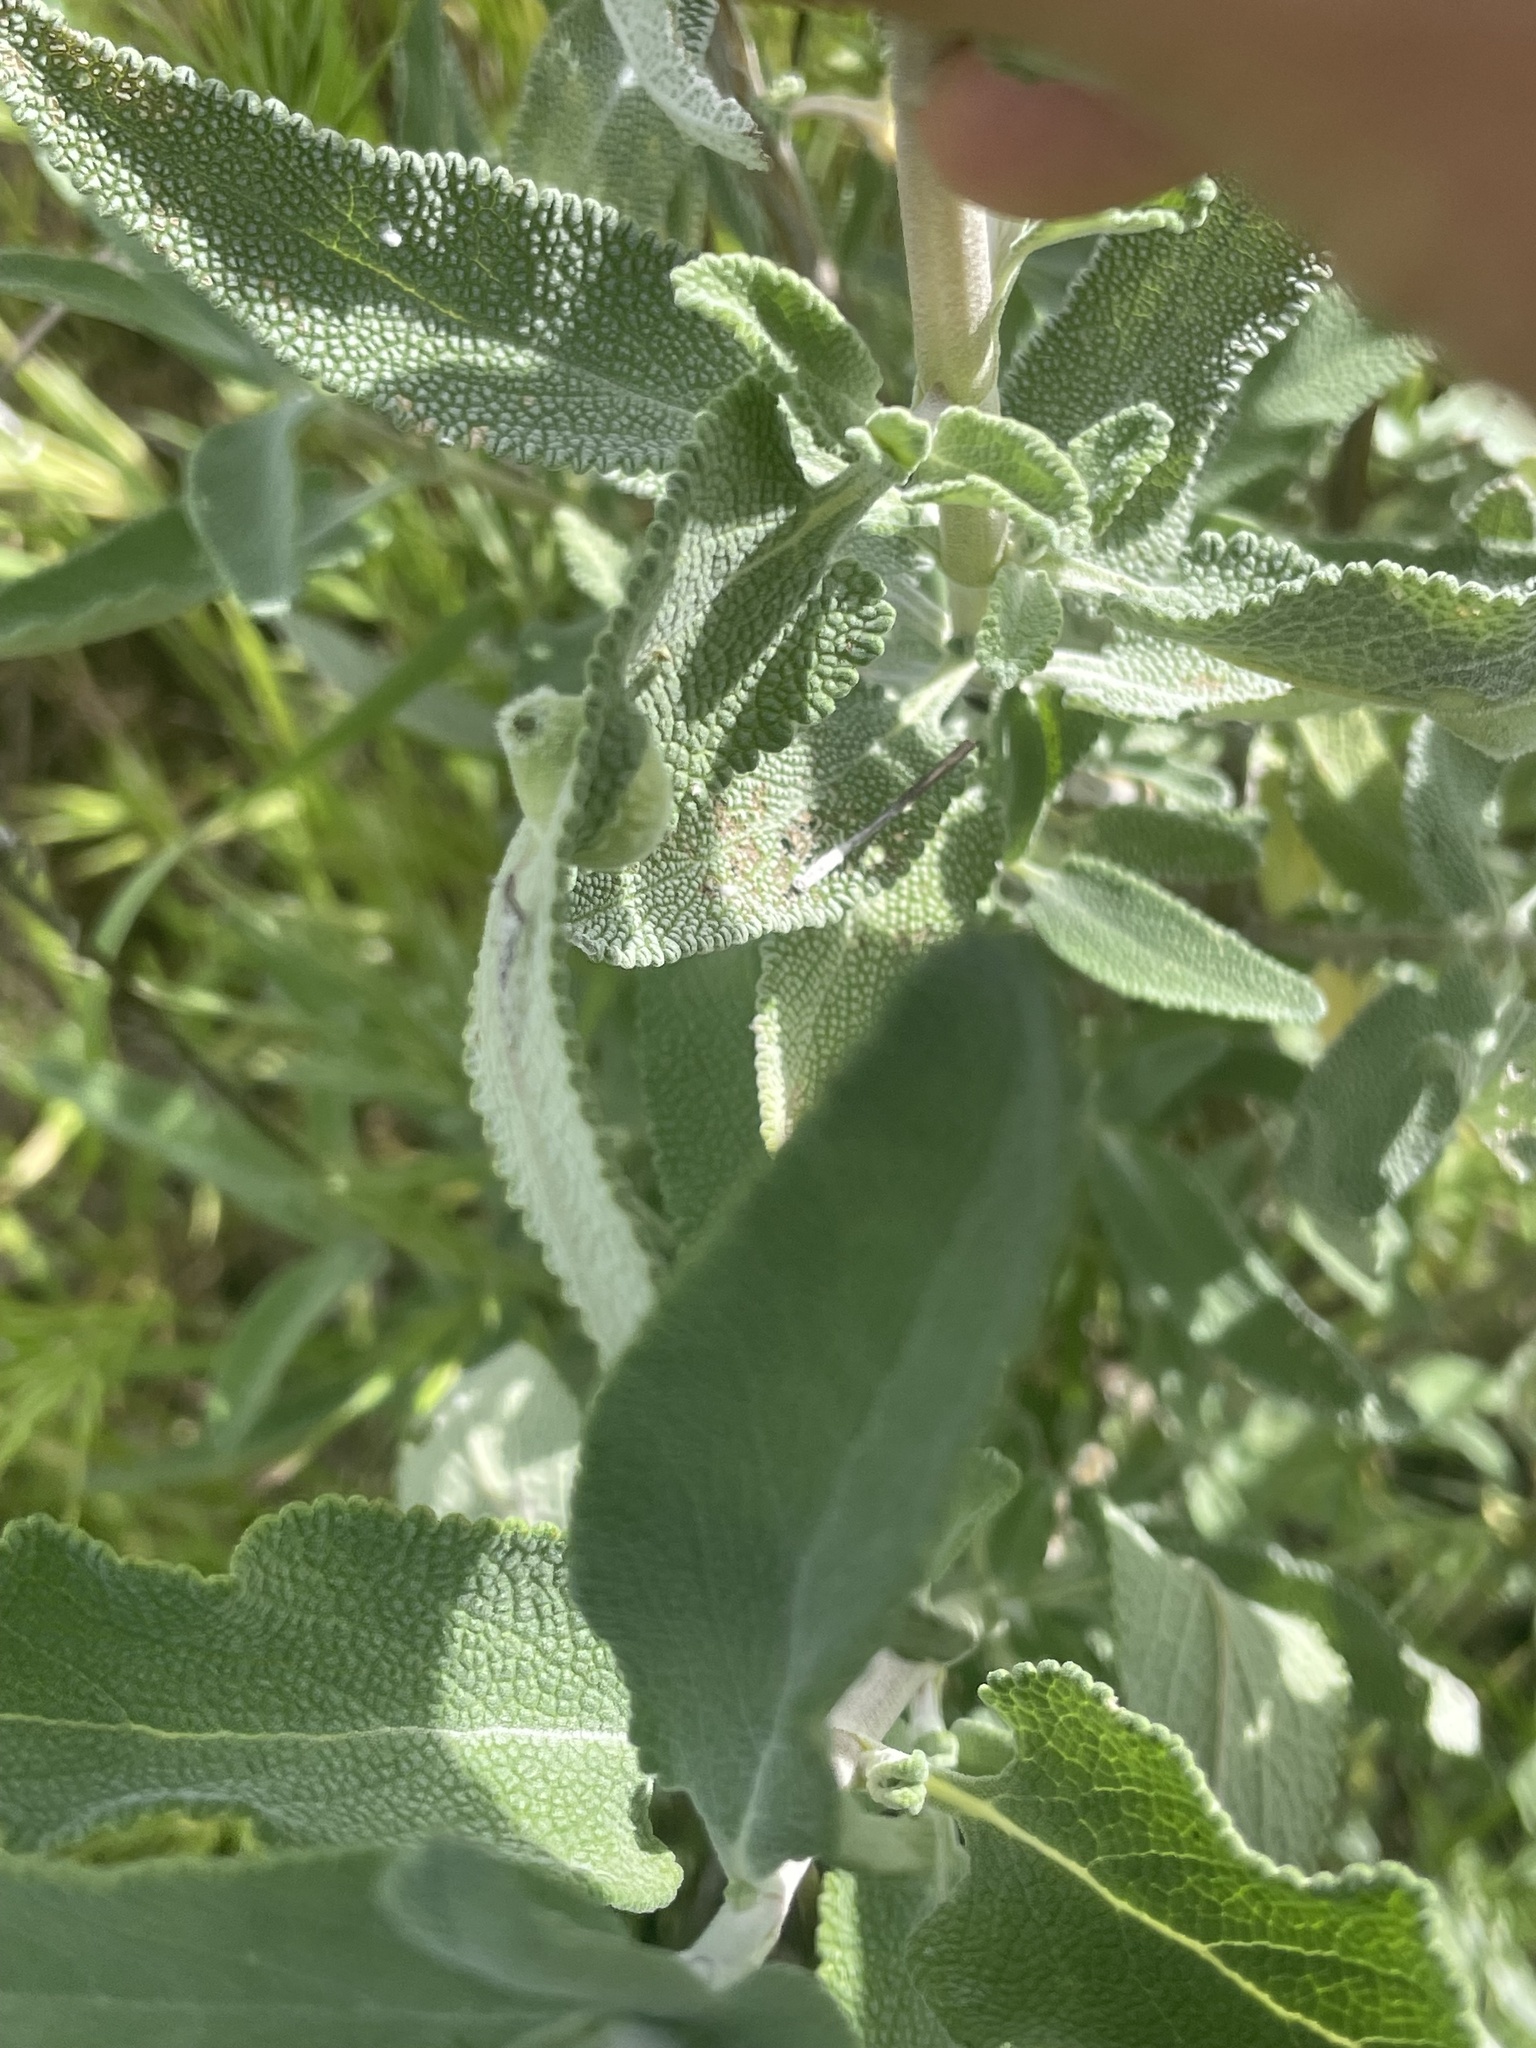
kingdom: Animalia
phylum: Arthropoda
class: Insecta
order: Diptera
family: Cecidomyiidae
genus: Rhopalomyia
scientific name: Rhopalomyia audibertiae
